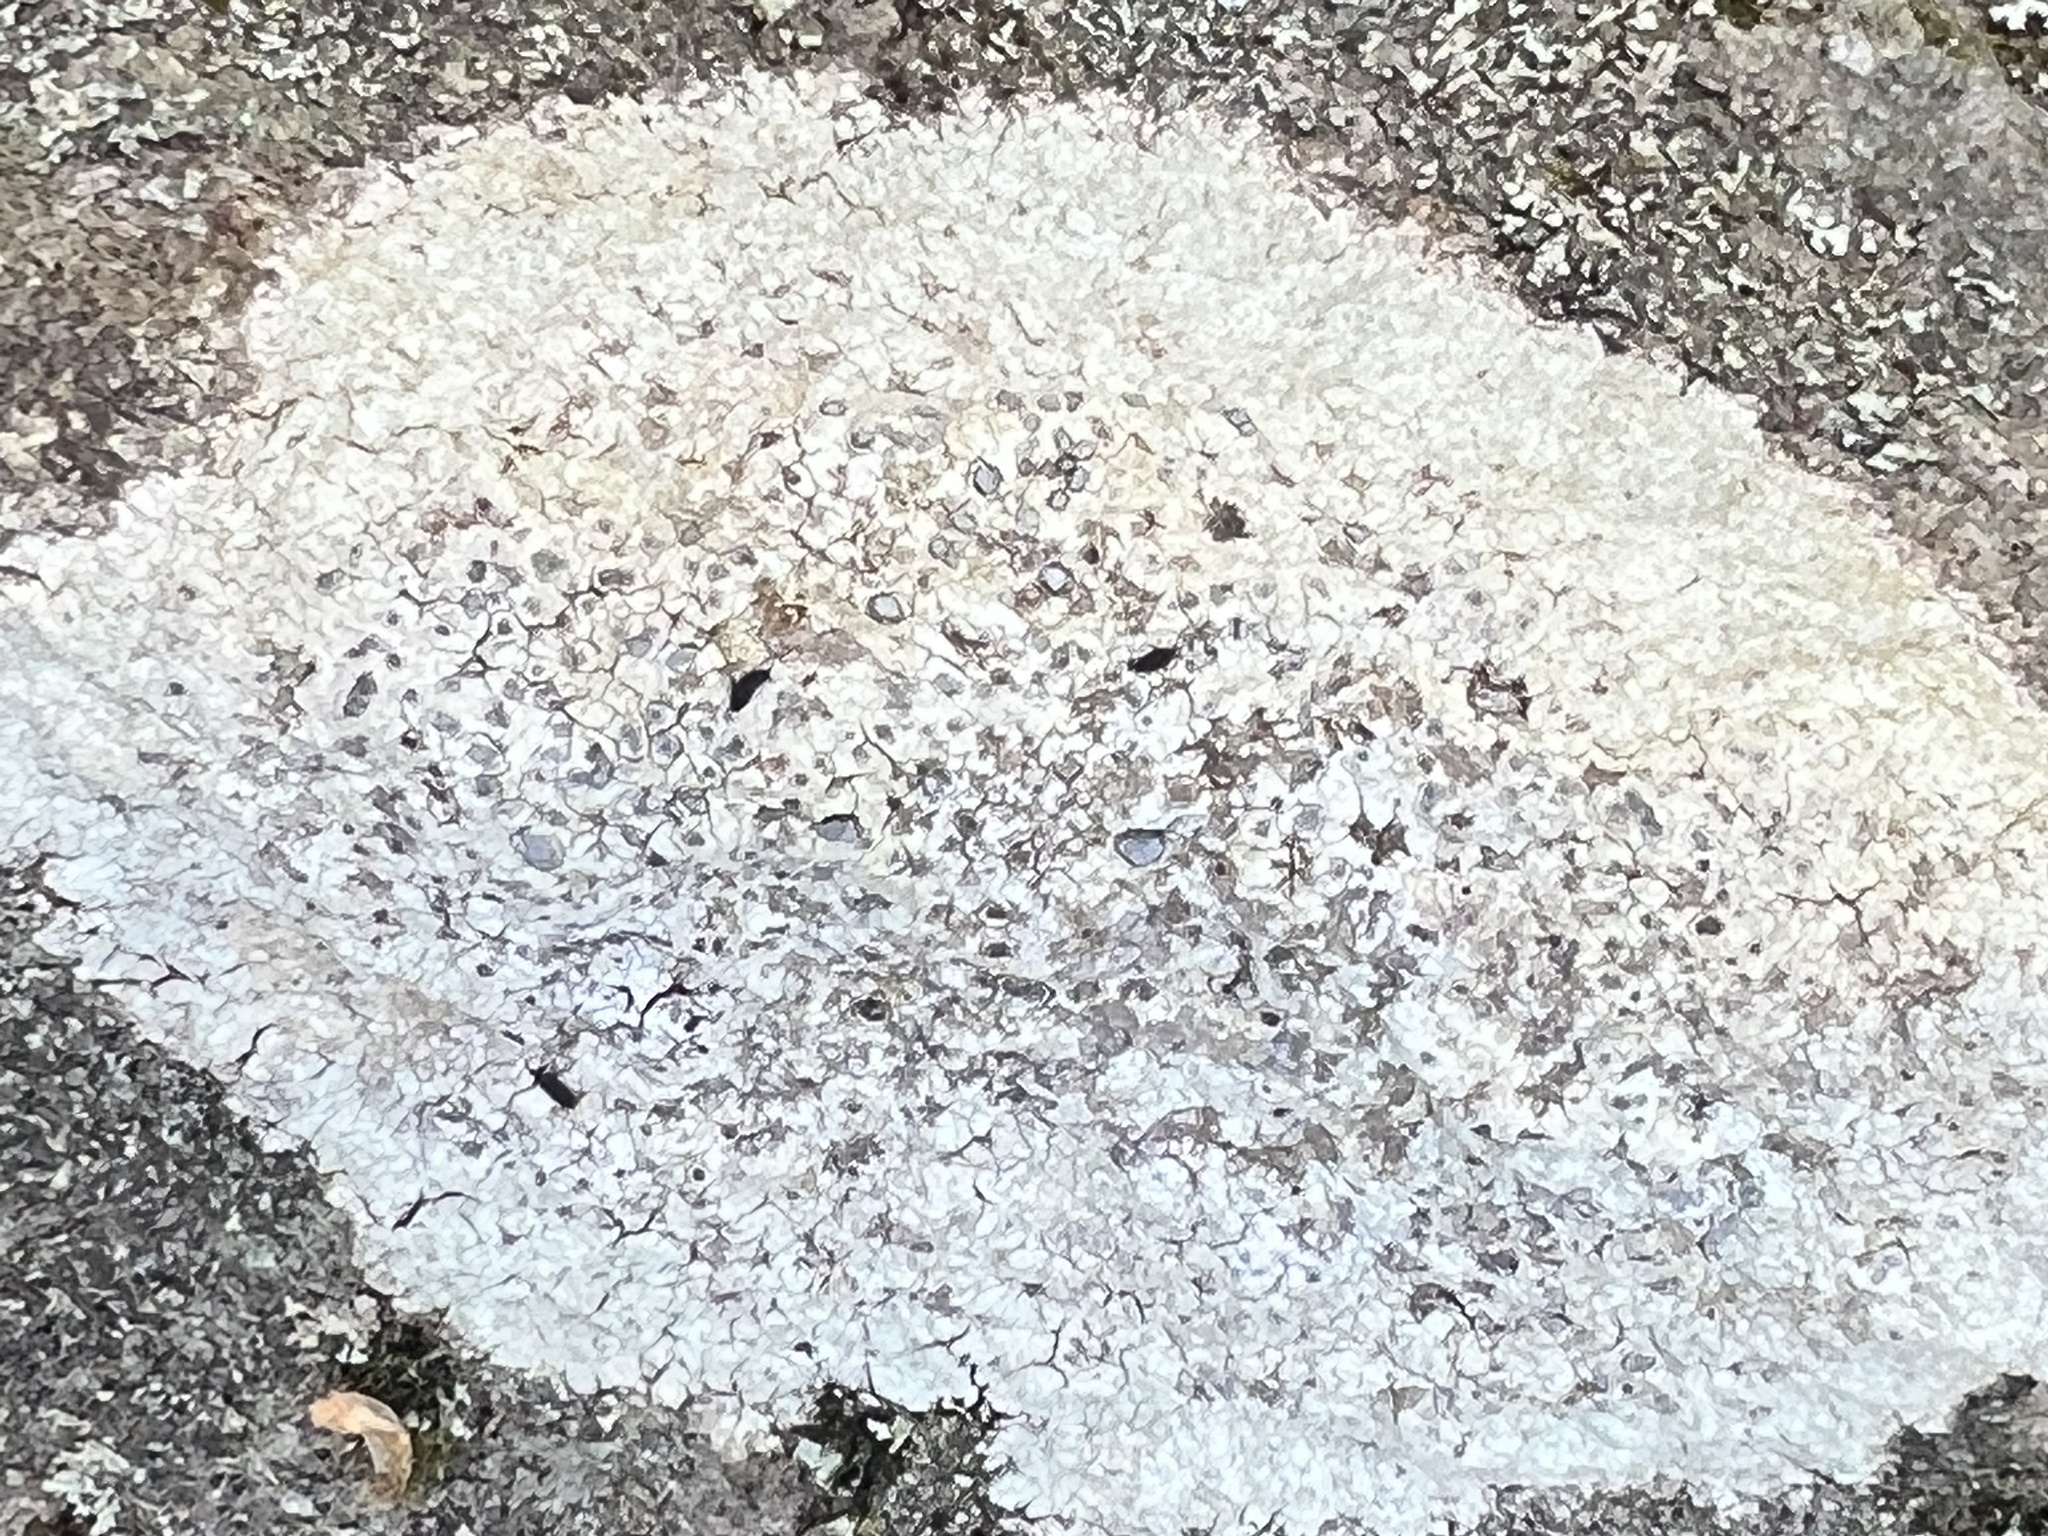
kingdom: Fungi
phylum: Ascomycota
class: Lecanoromycetes
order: Lecideales
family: Lecideaceae
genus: Porpidia
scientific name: Porpidia albocaerulescens
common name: Smokey-eyed boulder lichen
